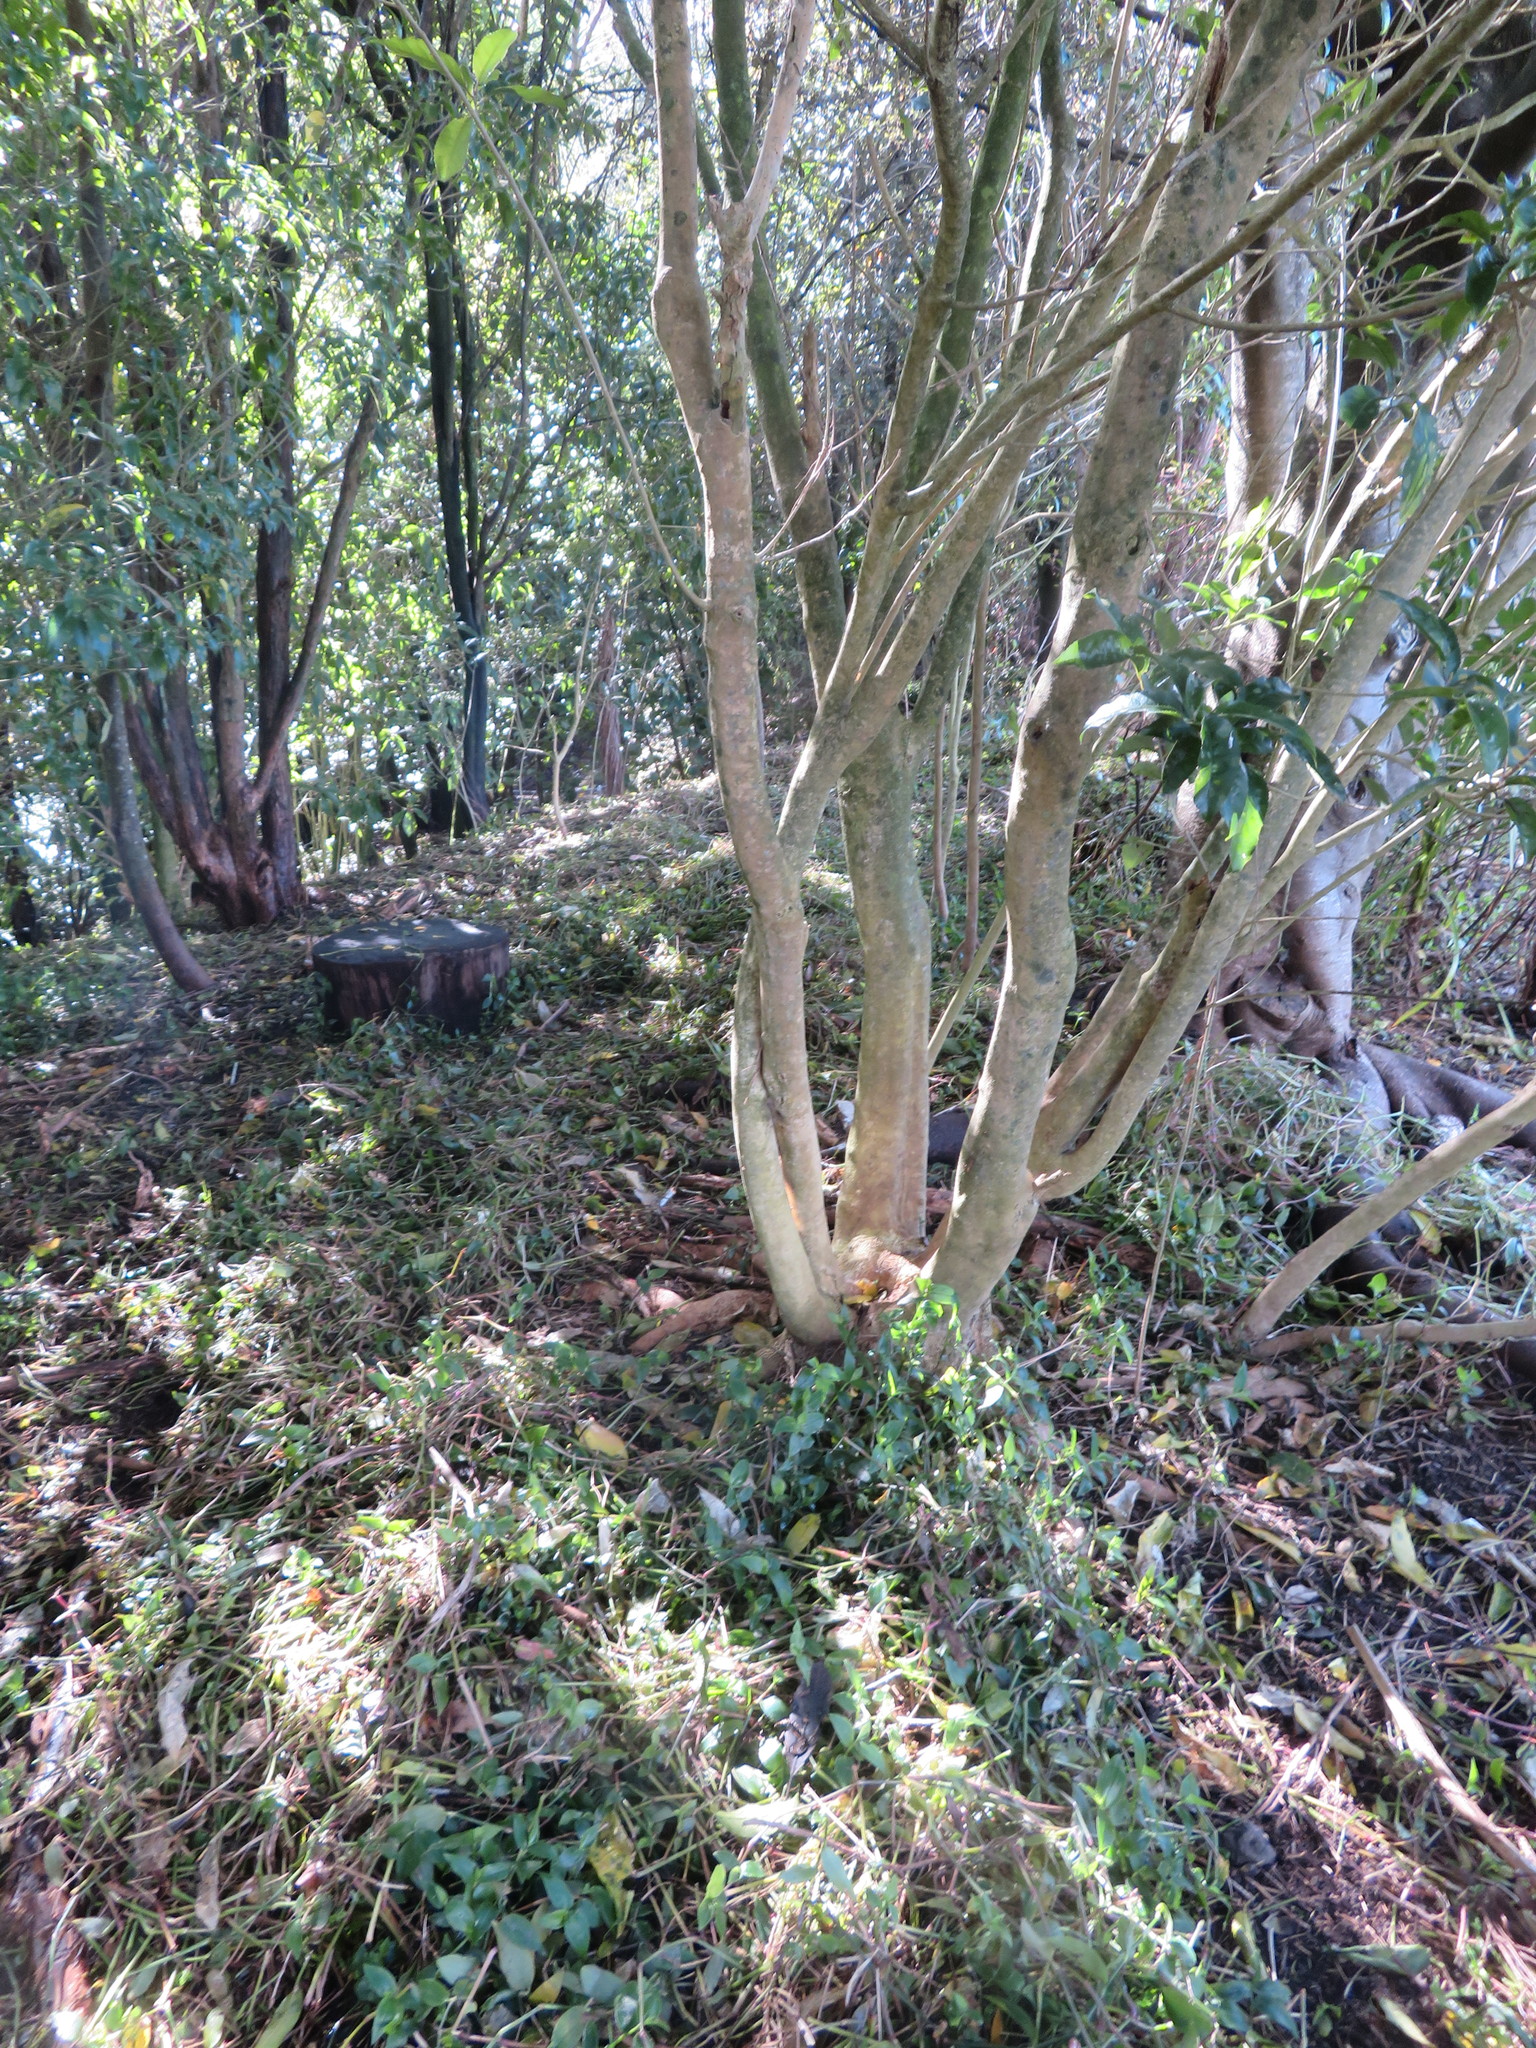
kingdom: Plantae
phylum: Tracheophyta
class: Magnoliopsida
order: Malpighiales
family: Violaceae
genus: Melicytus
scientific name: Melicytus ramiflorus
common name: Mahoe
